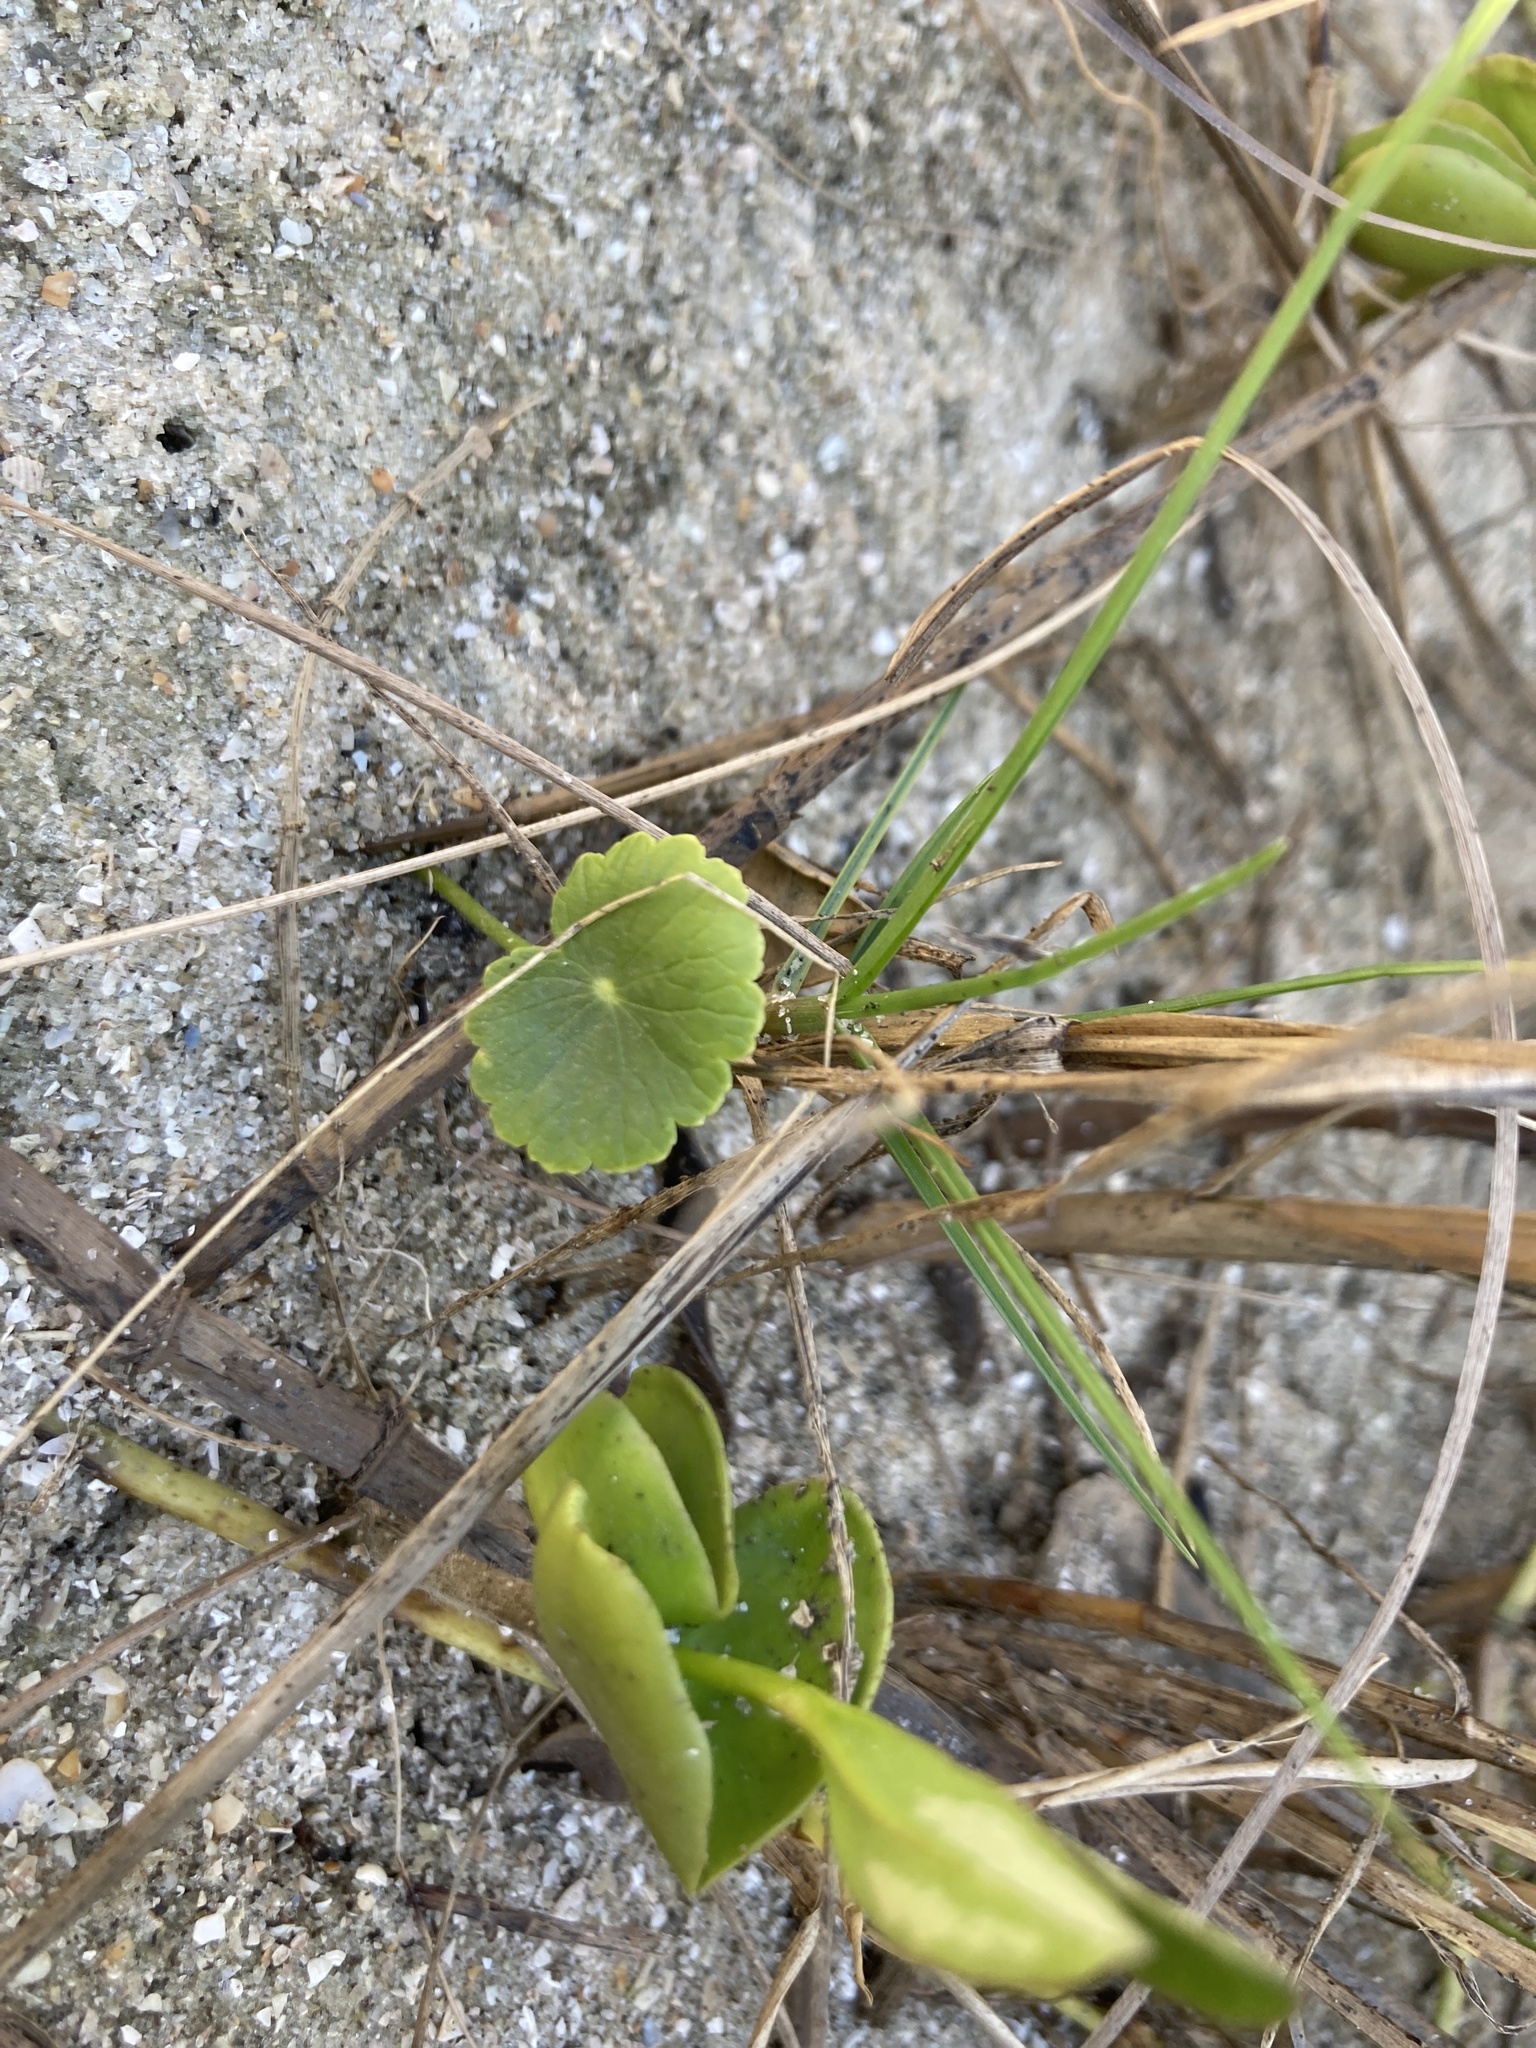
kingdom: Plantae
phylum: Tracheophyta
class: Magnoliopsida
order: Apiales
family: Araliaceae
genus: Hydrocotyle
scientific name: Hydrocotyle bonariensis
